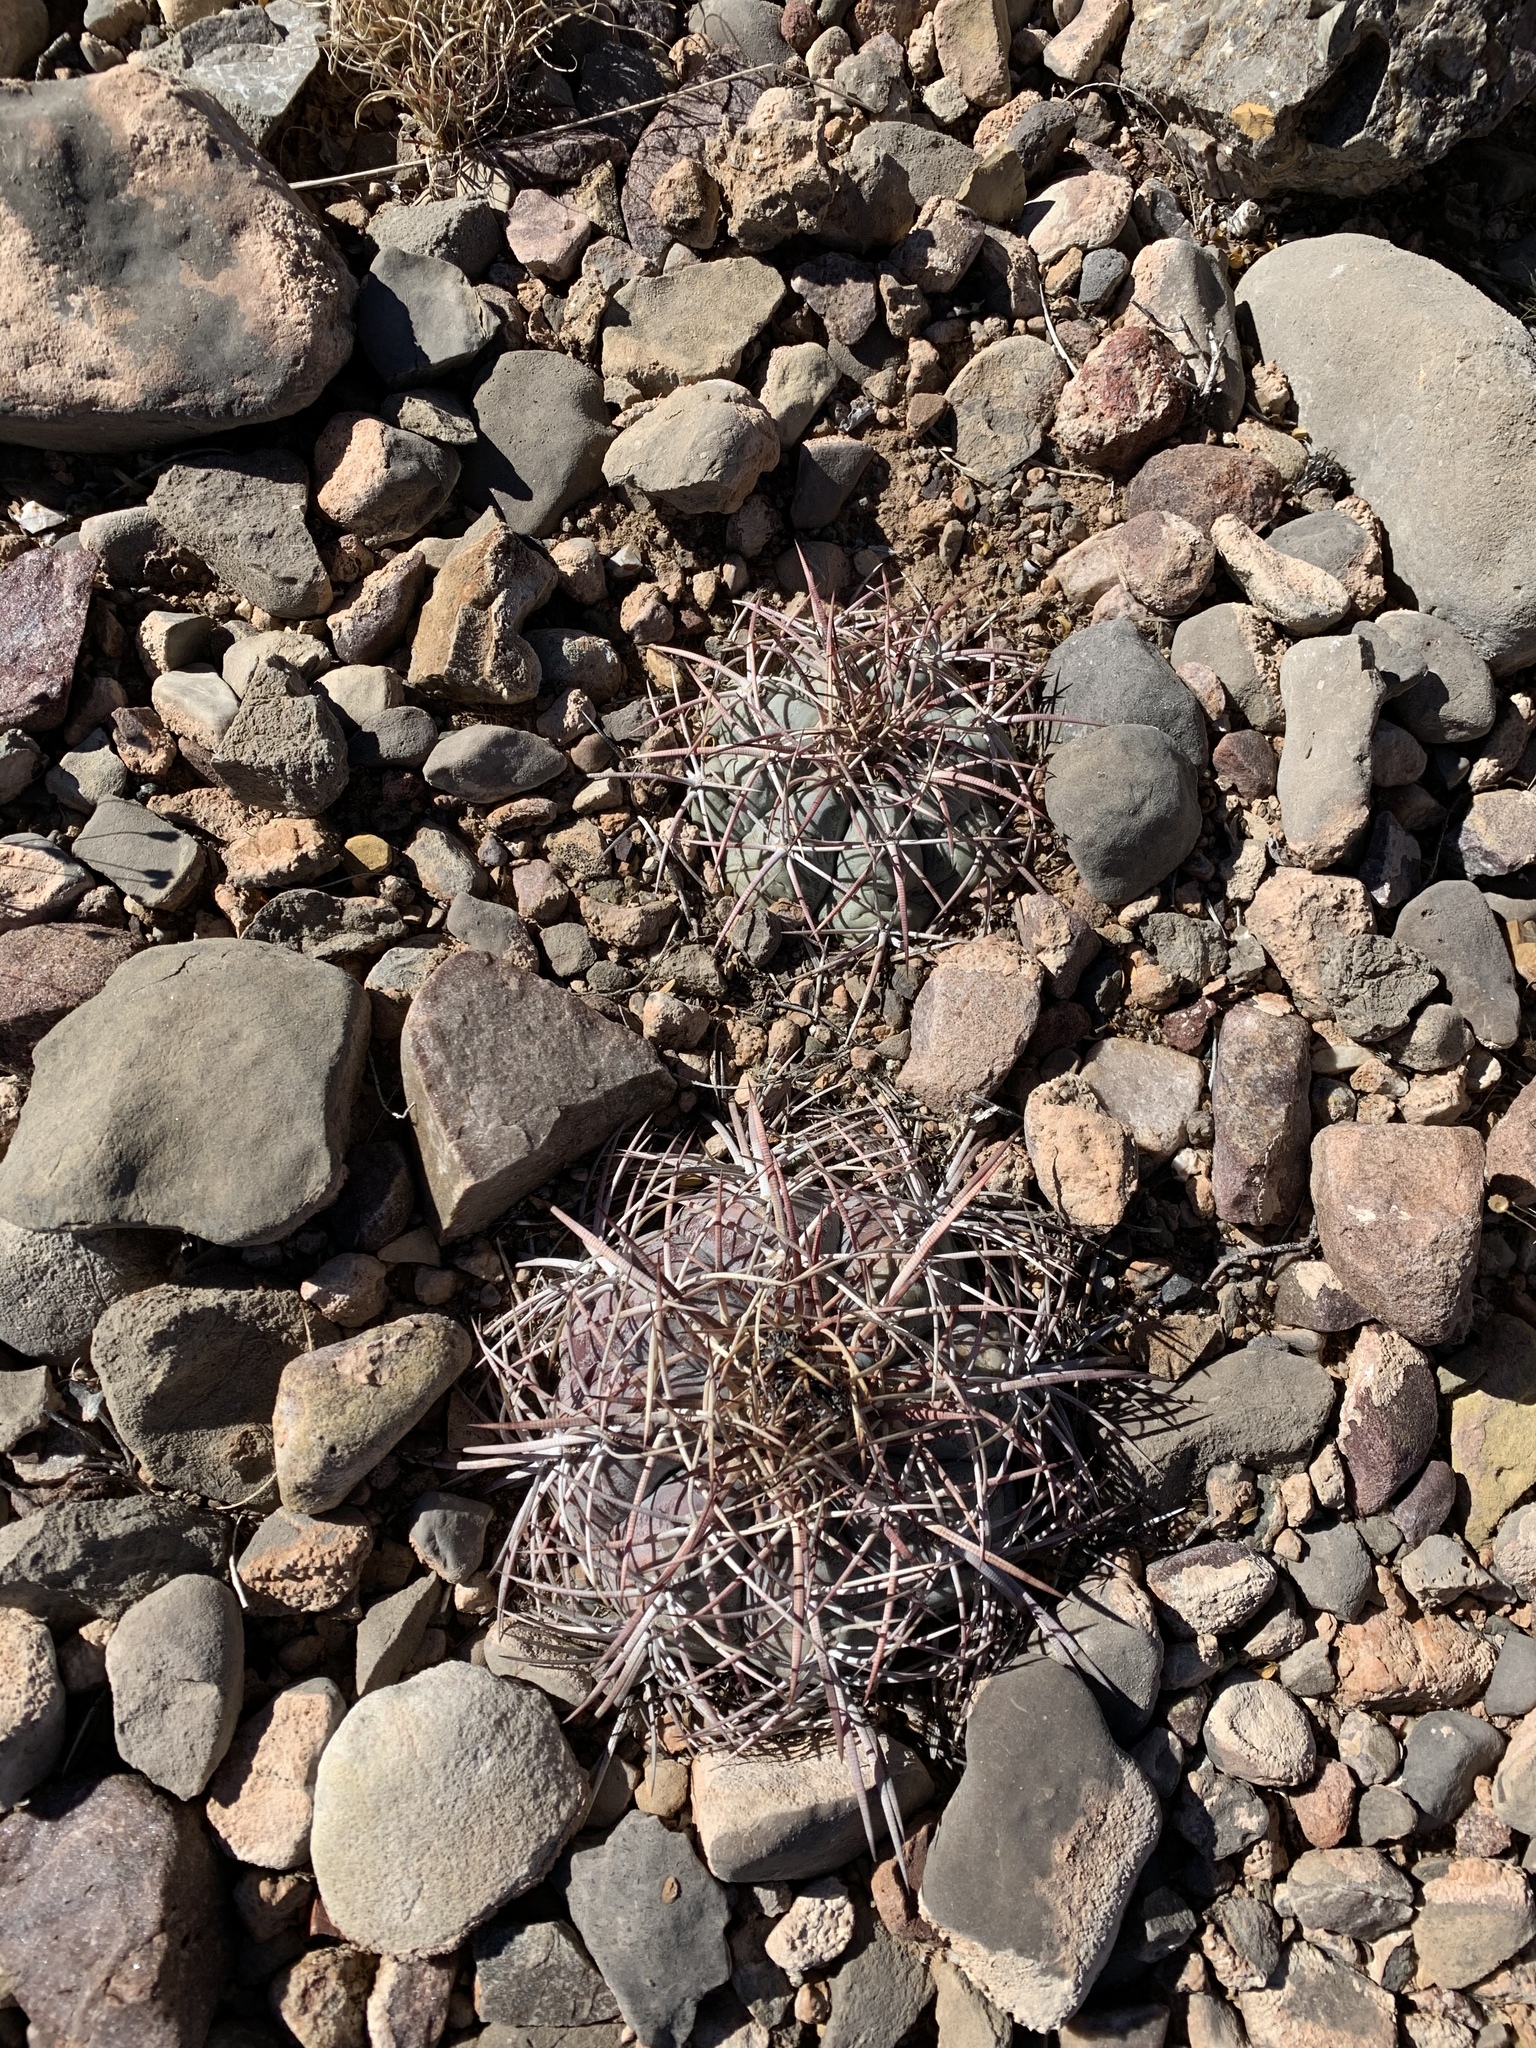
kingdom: Plantae
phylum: Tracheophyta
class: Magnoliopsida
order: Caryophyllales
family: Cactaceae
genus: Echinocactus
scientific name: Echinocactus horizonthalonius
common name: Devilshead
